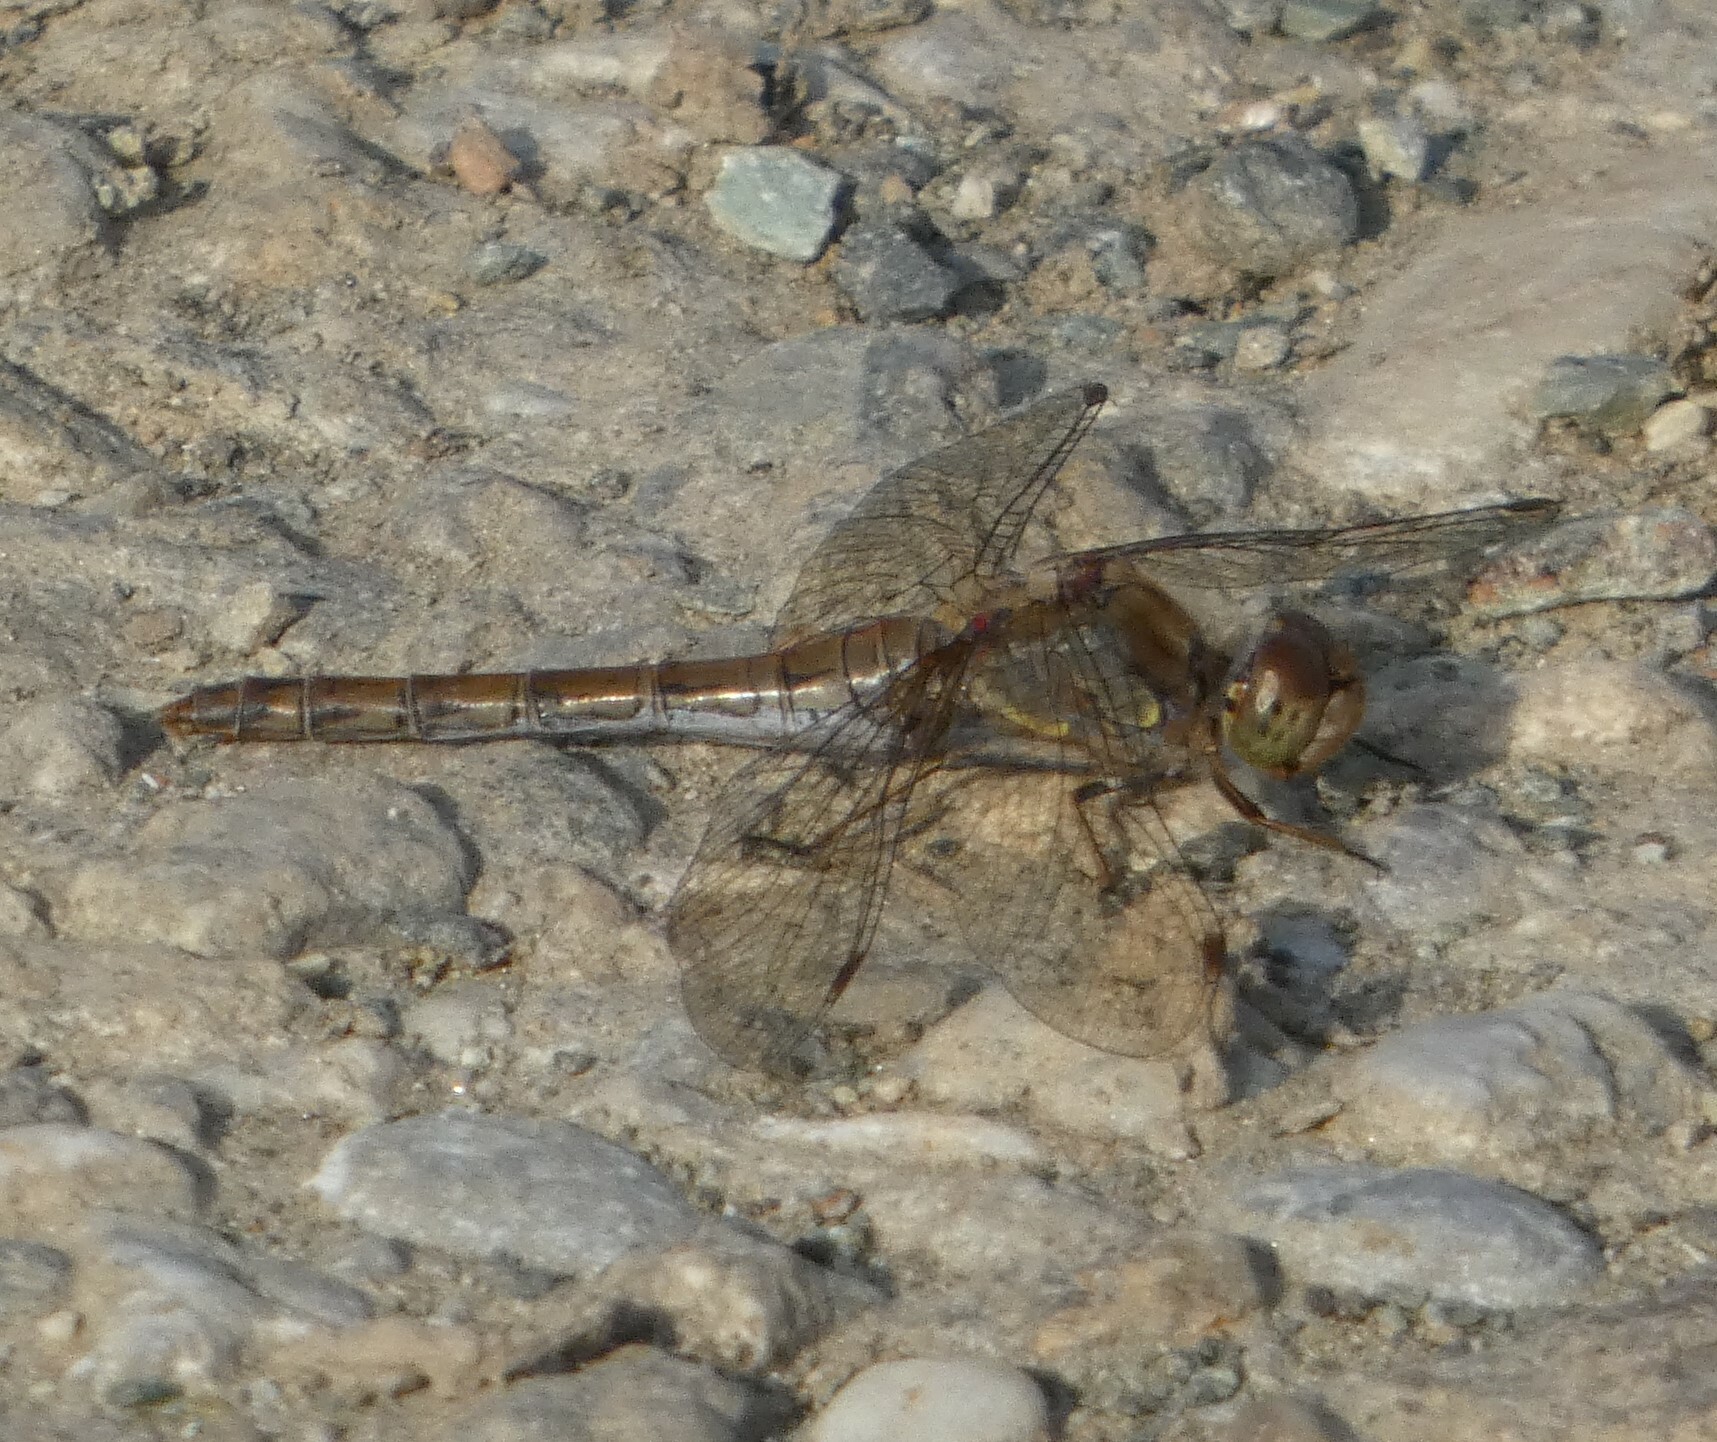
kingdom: Animalia
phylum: Arthropoda
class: Insecta
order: Odonata
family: Libellulidae
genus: Sympetrum
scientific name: Sympetrum striolatum
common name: Common darter
